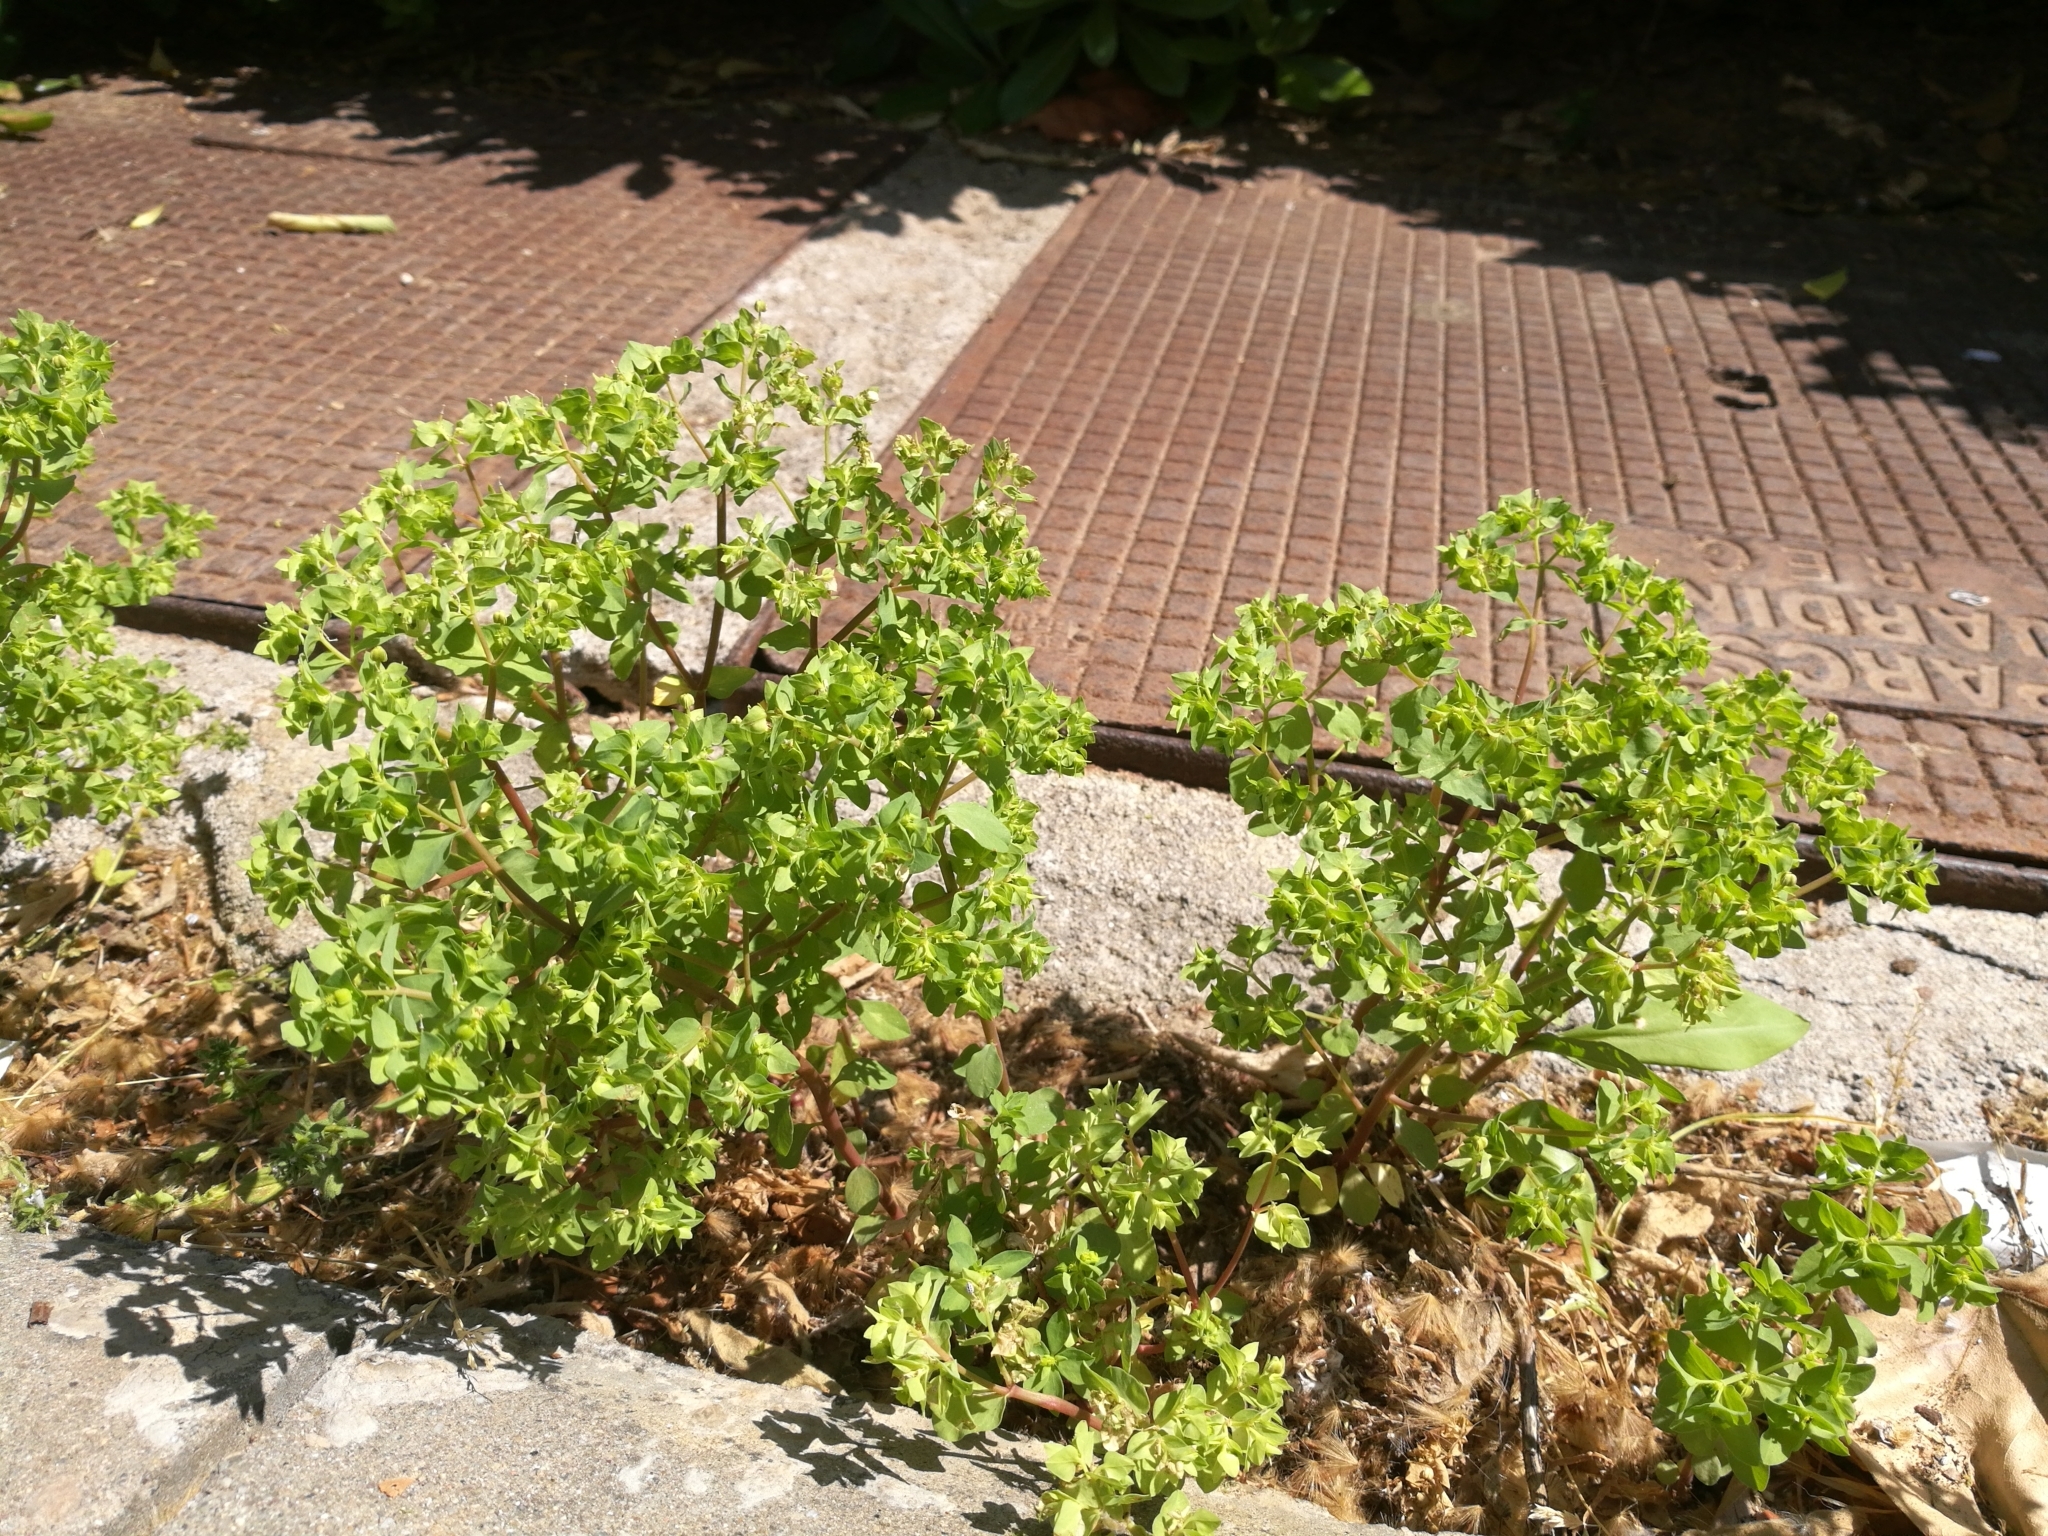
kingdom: Plantae
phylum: Tracheophyta
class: Magnoliopsida
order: Malpighiales
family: Euphorbiaceae
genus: Euphorbia
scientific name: Euphorbia peplus
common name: Petty spurge
